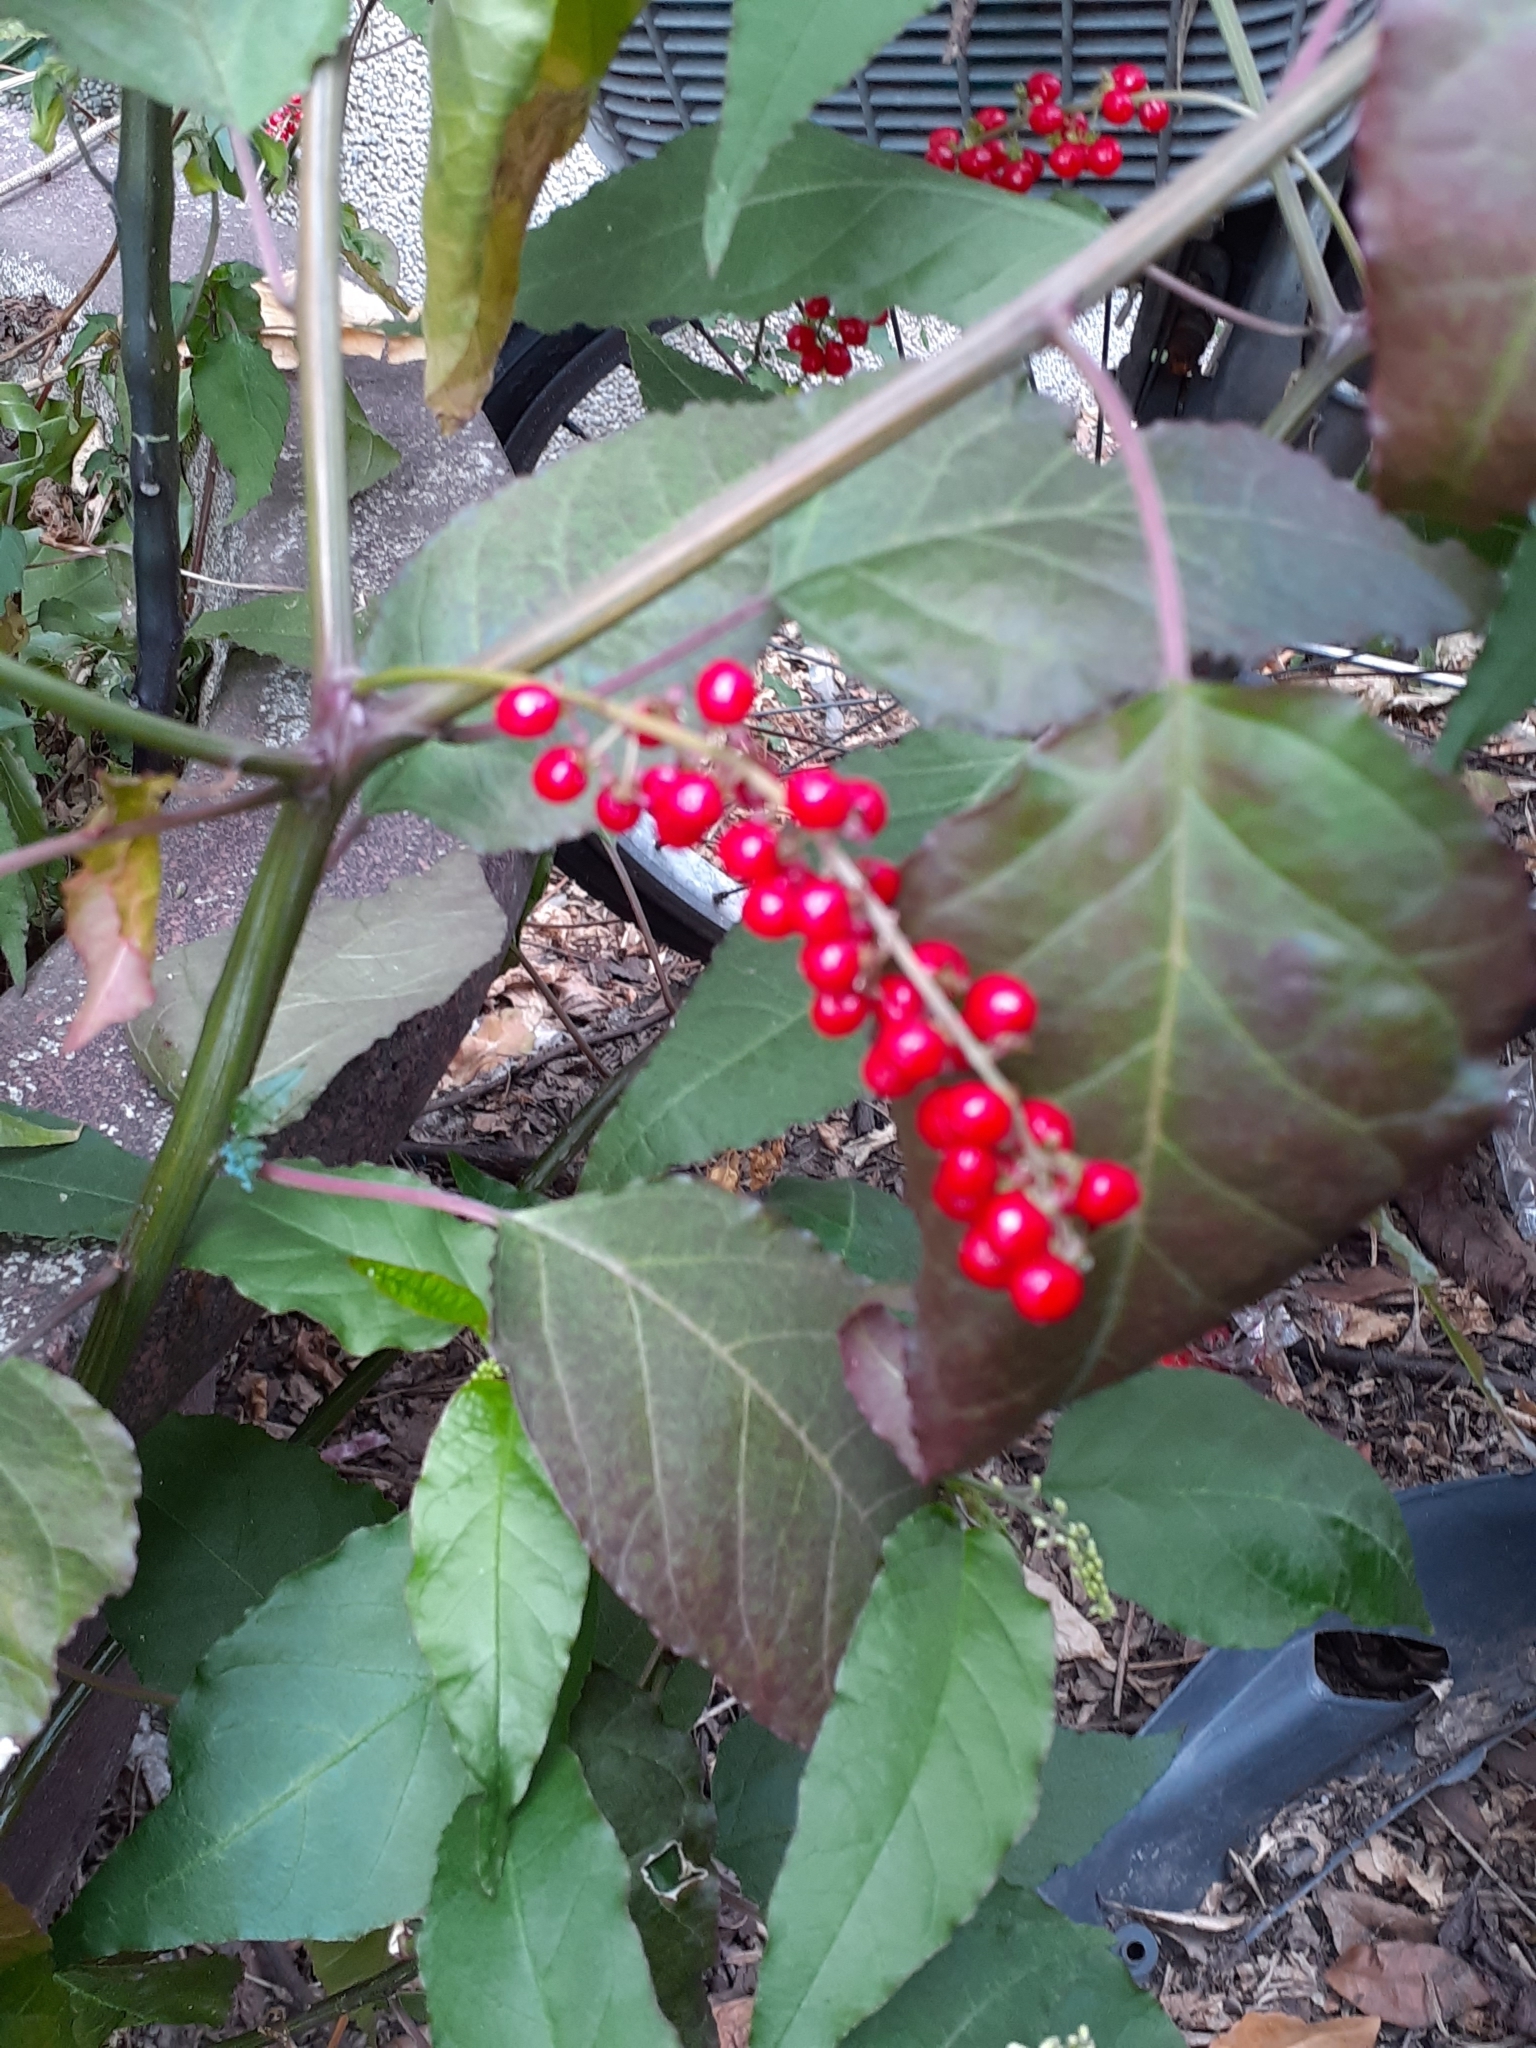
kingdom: Plantae
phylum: Tracheophyta
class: Magnoliopsida
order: Caryophyllales
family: Phytolaccaceae
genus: Rivina
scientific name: Rivina humilis
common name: Rougeplant
